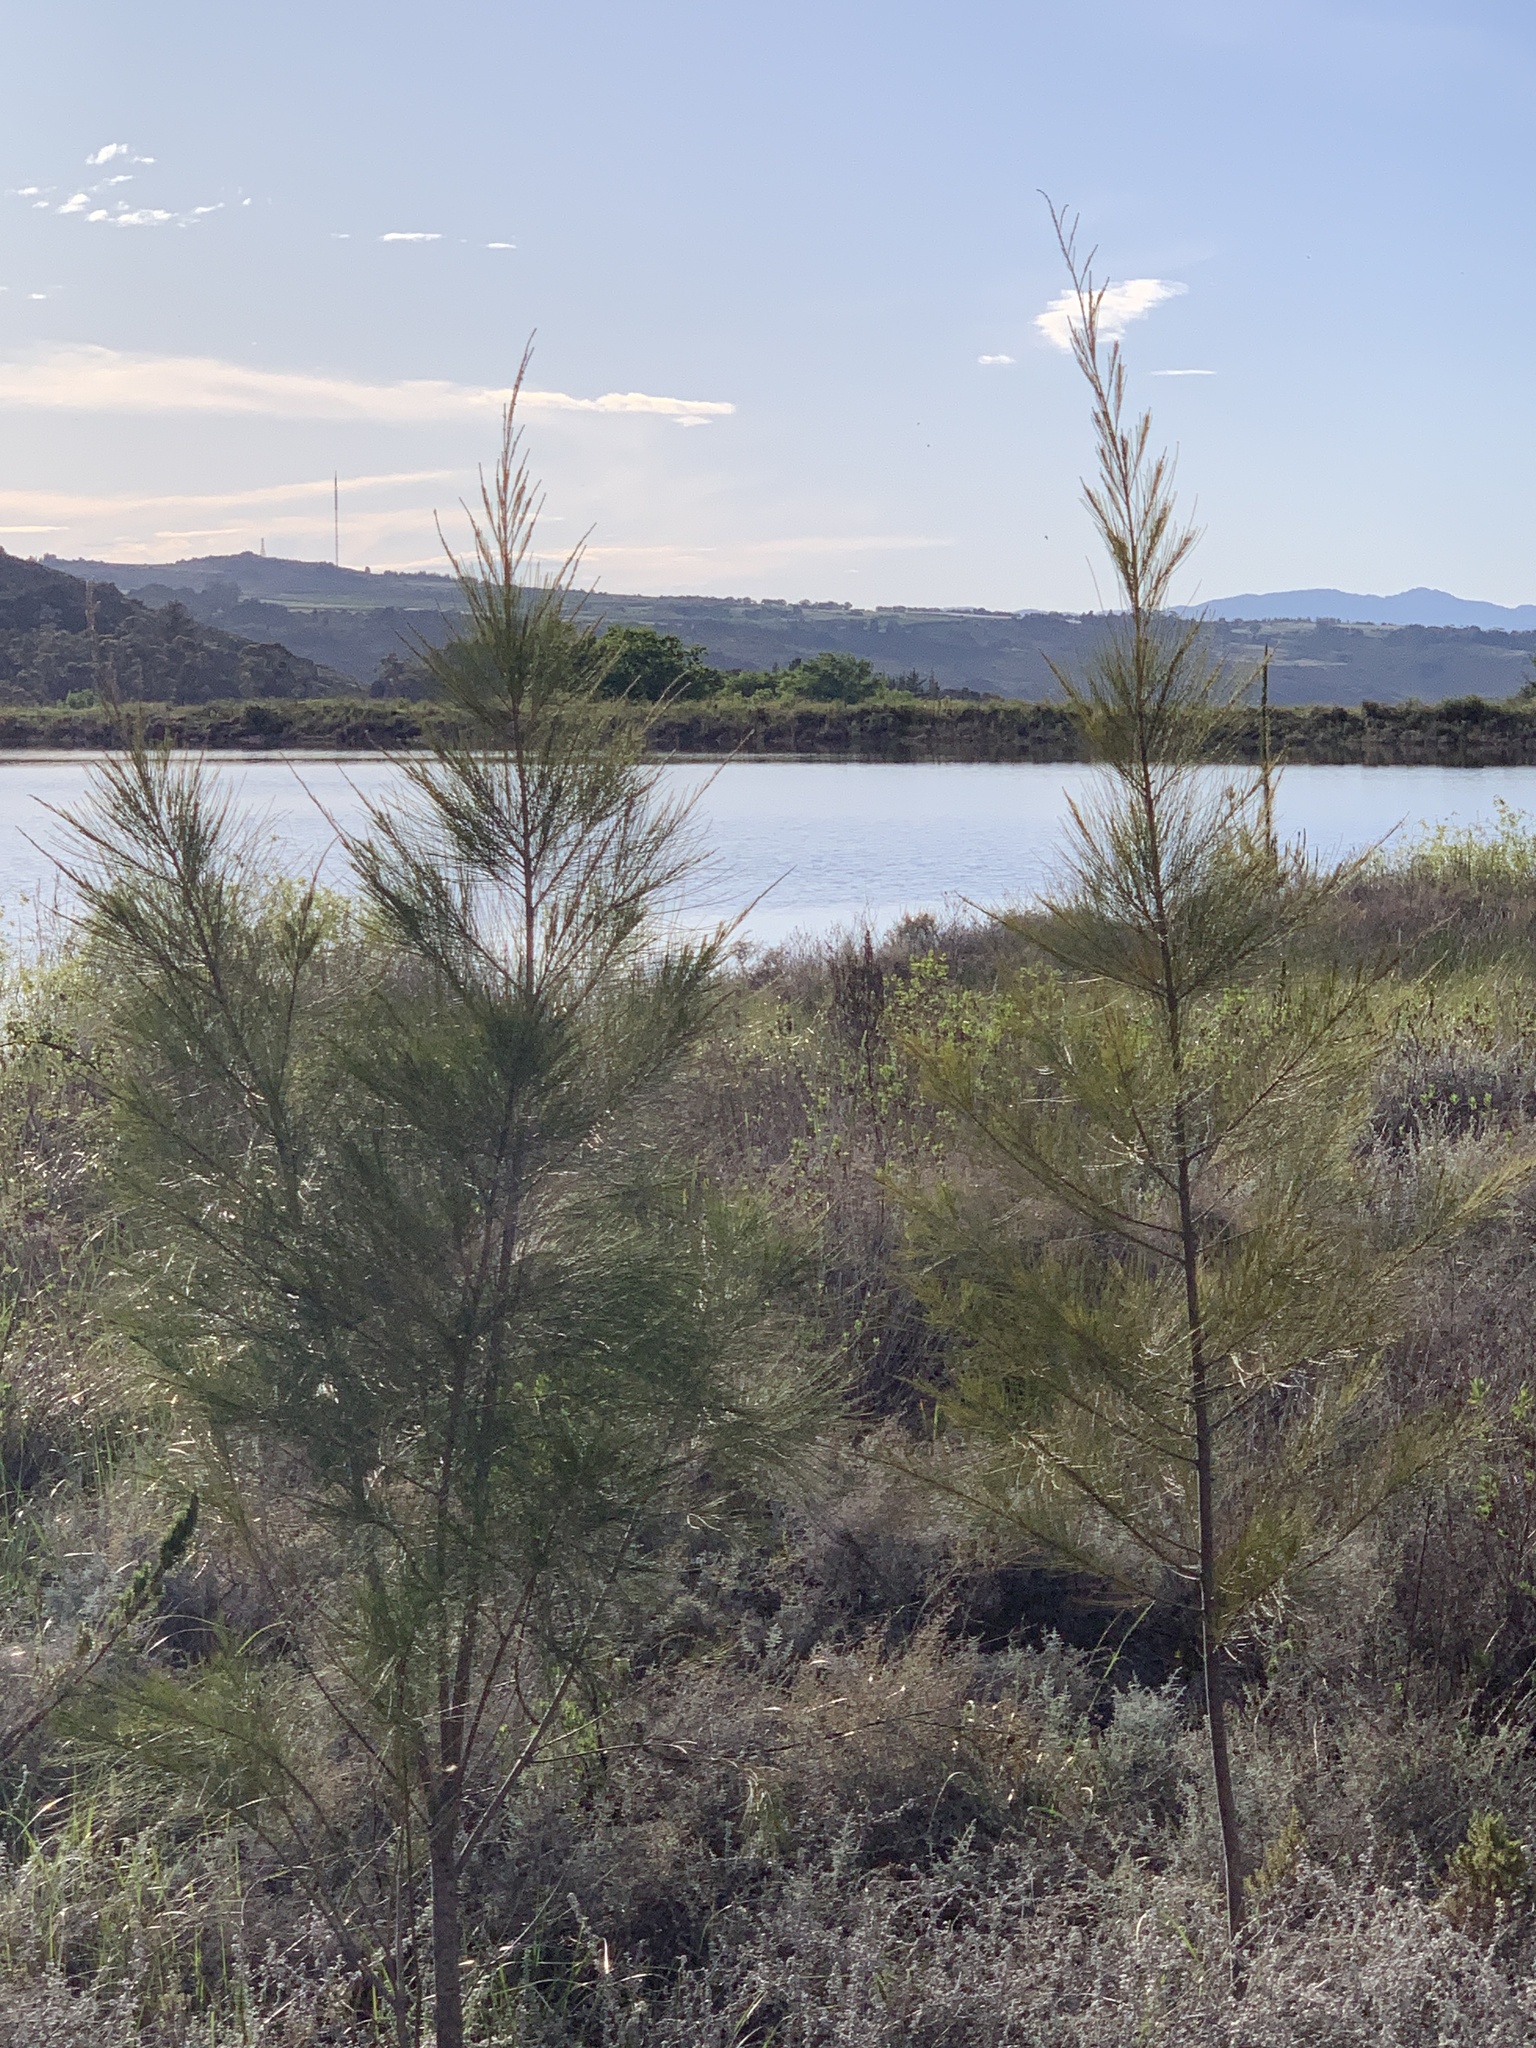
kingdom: Plantae
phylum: Tracheophyta
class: Magnoliopsida
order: Fagales
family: Casuarinaceae
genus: Casuarina
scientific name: Casuarina cunninghamiana
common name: River sheoak
